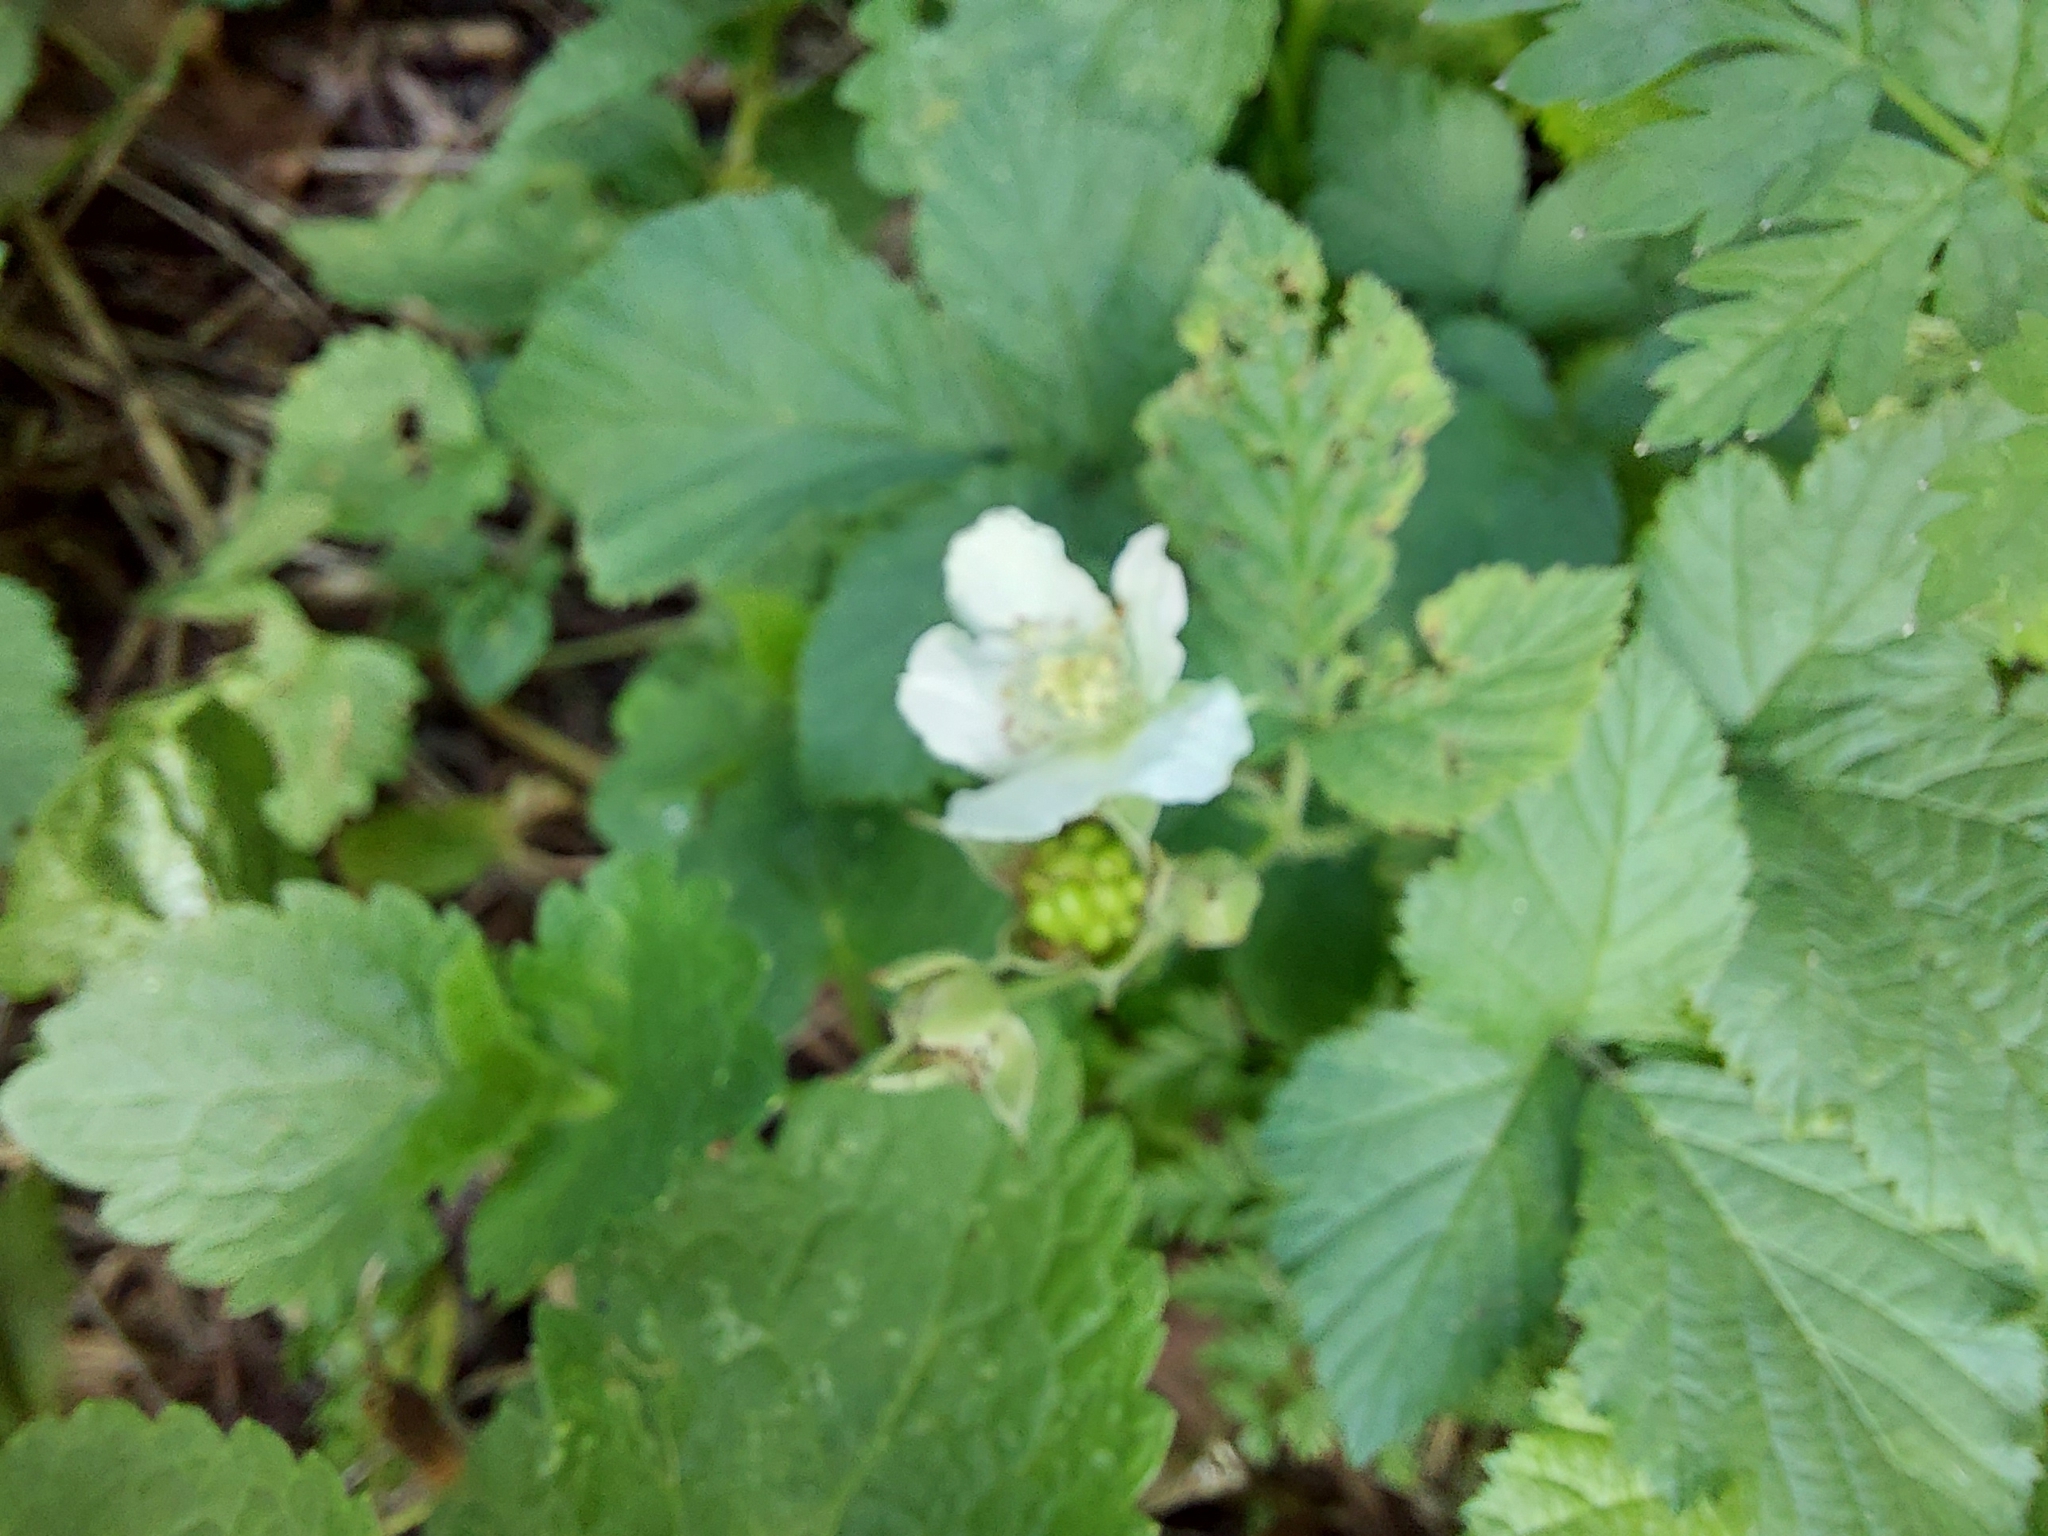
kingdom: Plantae
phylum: Tracheophyta
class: Magnoliopsida
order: Rosales
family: Rosaceae
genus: Rubus
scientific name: Rubus caesius
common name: Dewberry
